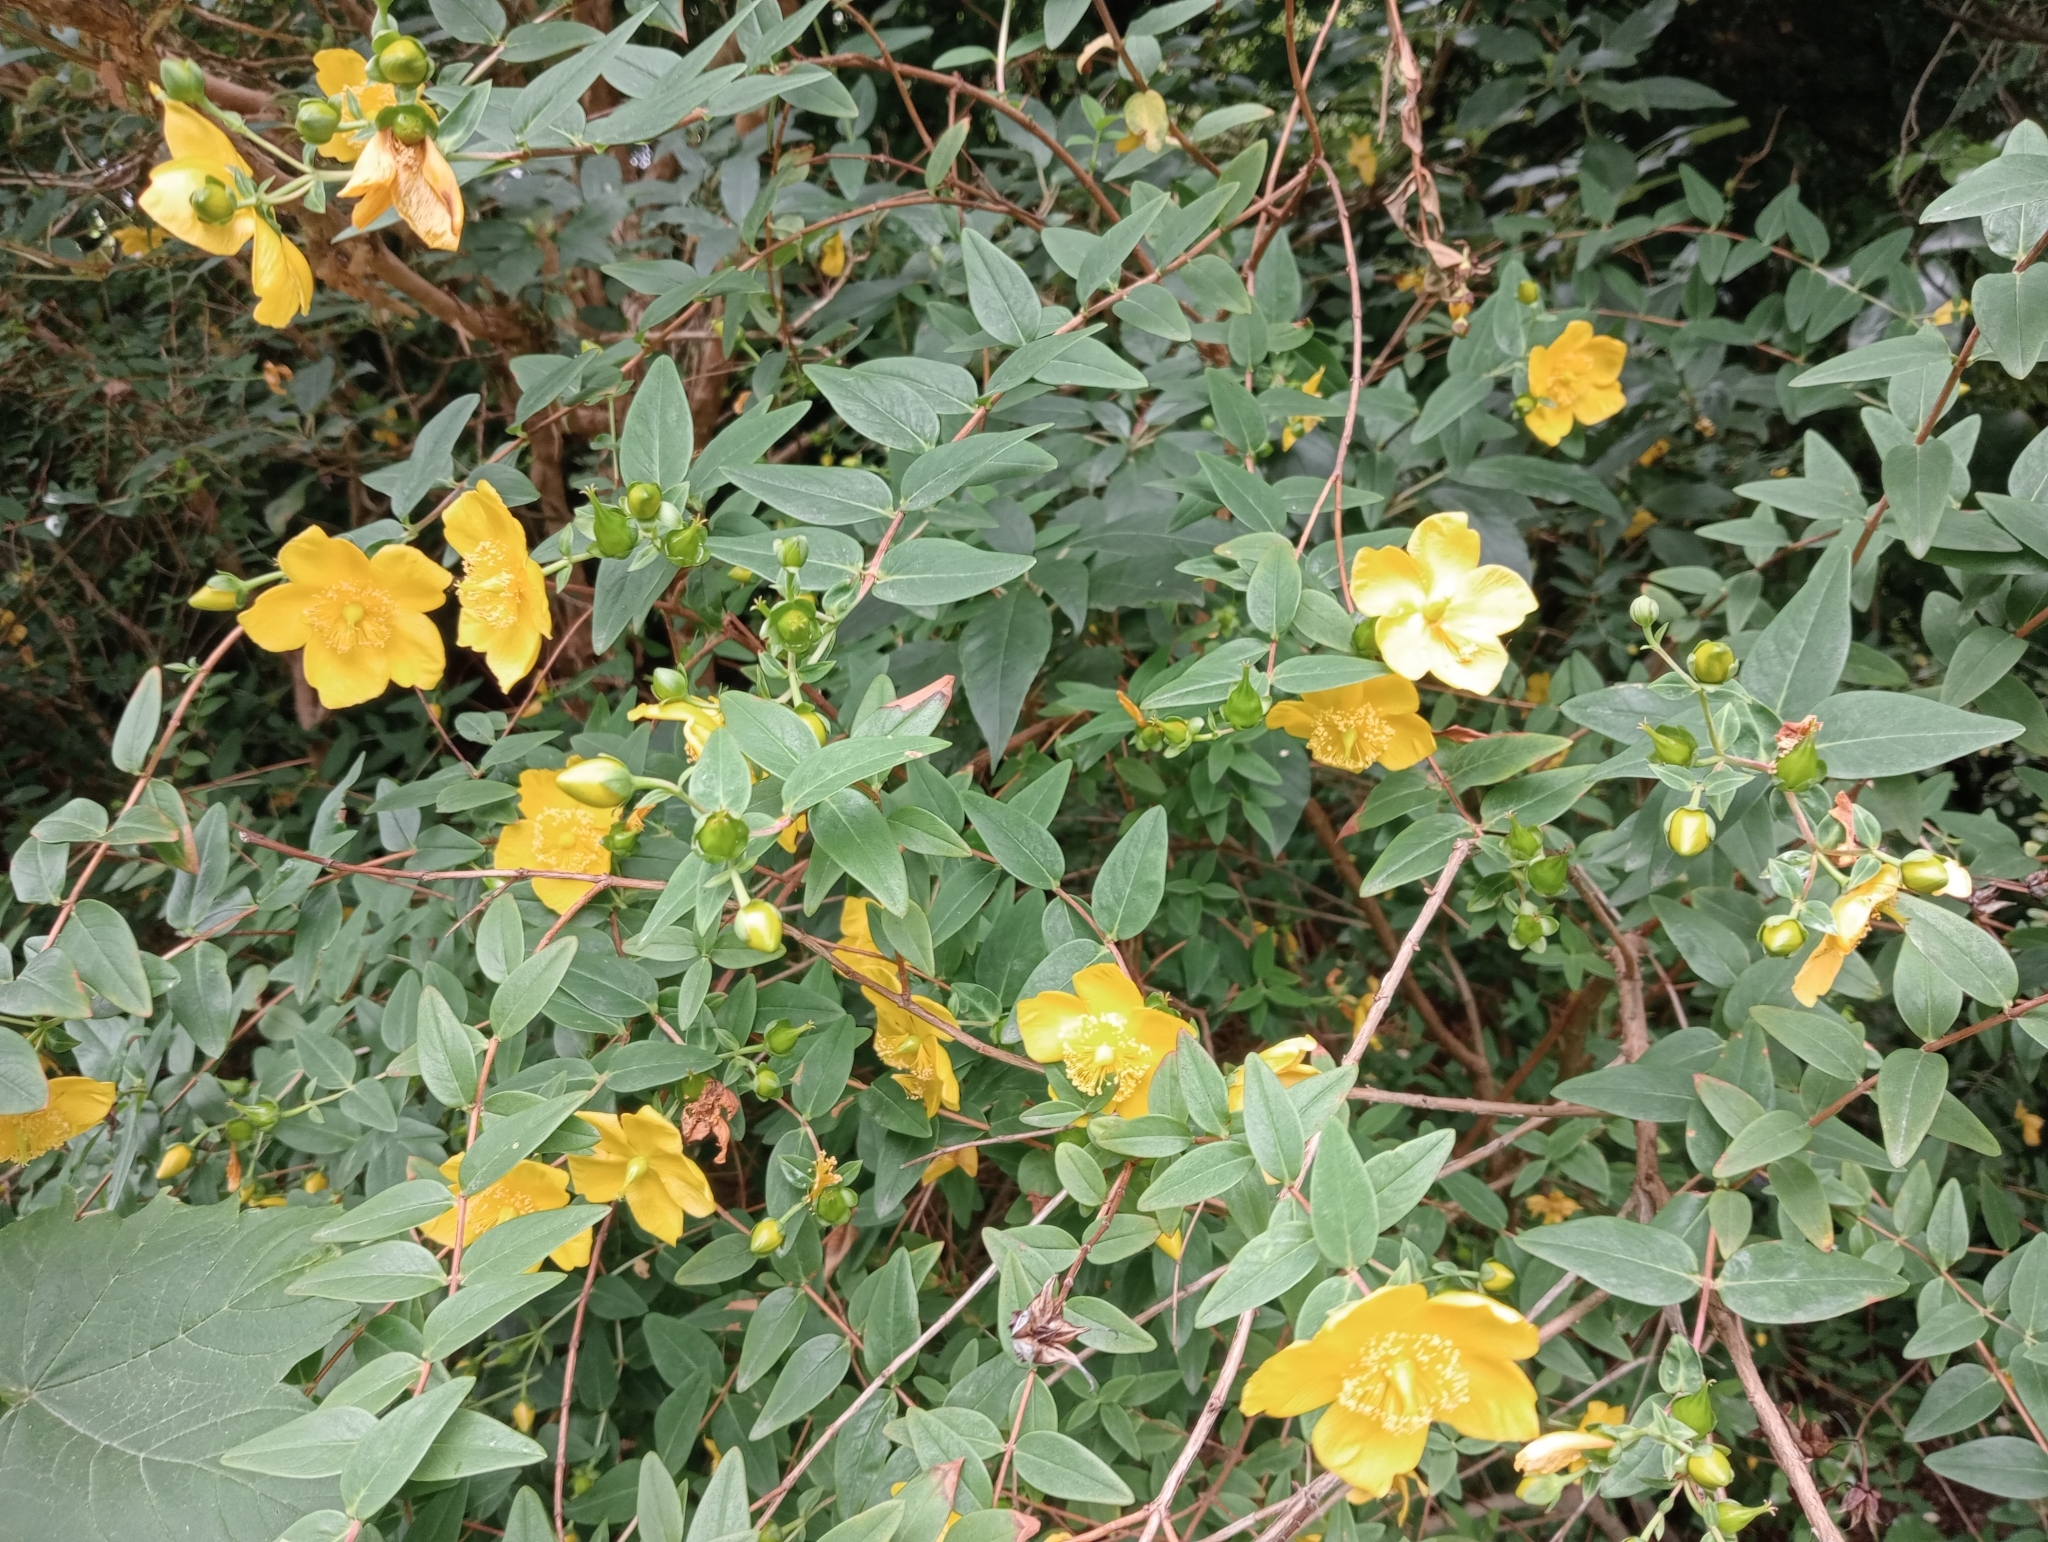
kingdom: Plantae
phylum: Tracheophyta
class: Magnoliopsida
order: Malpighiales
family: Hypericaceae
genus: Hypericum
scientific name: Hypericum calycinum
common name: Rose-of-sharon
